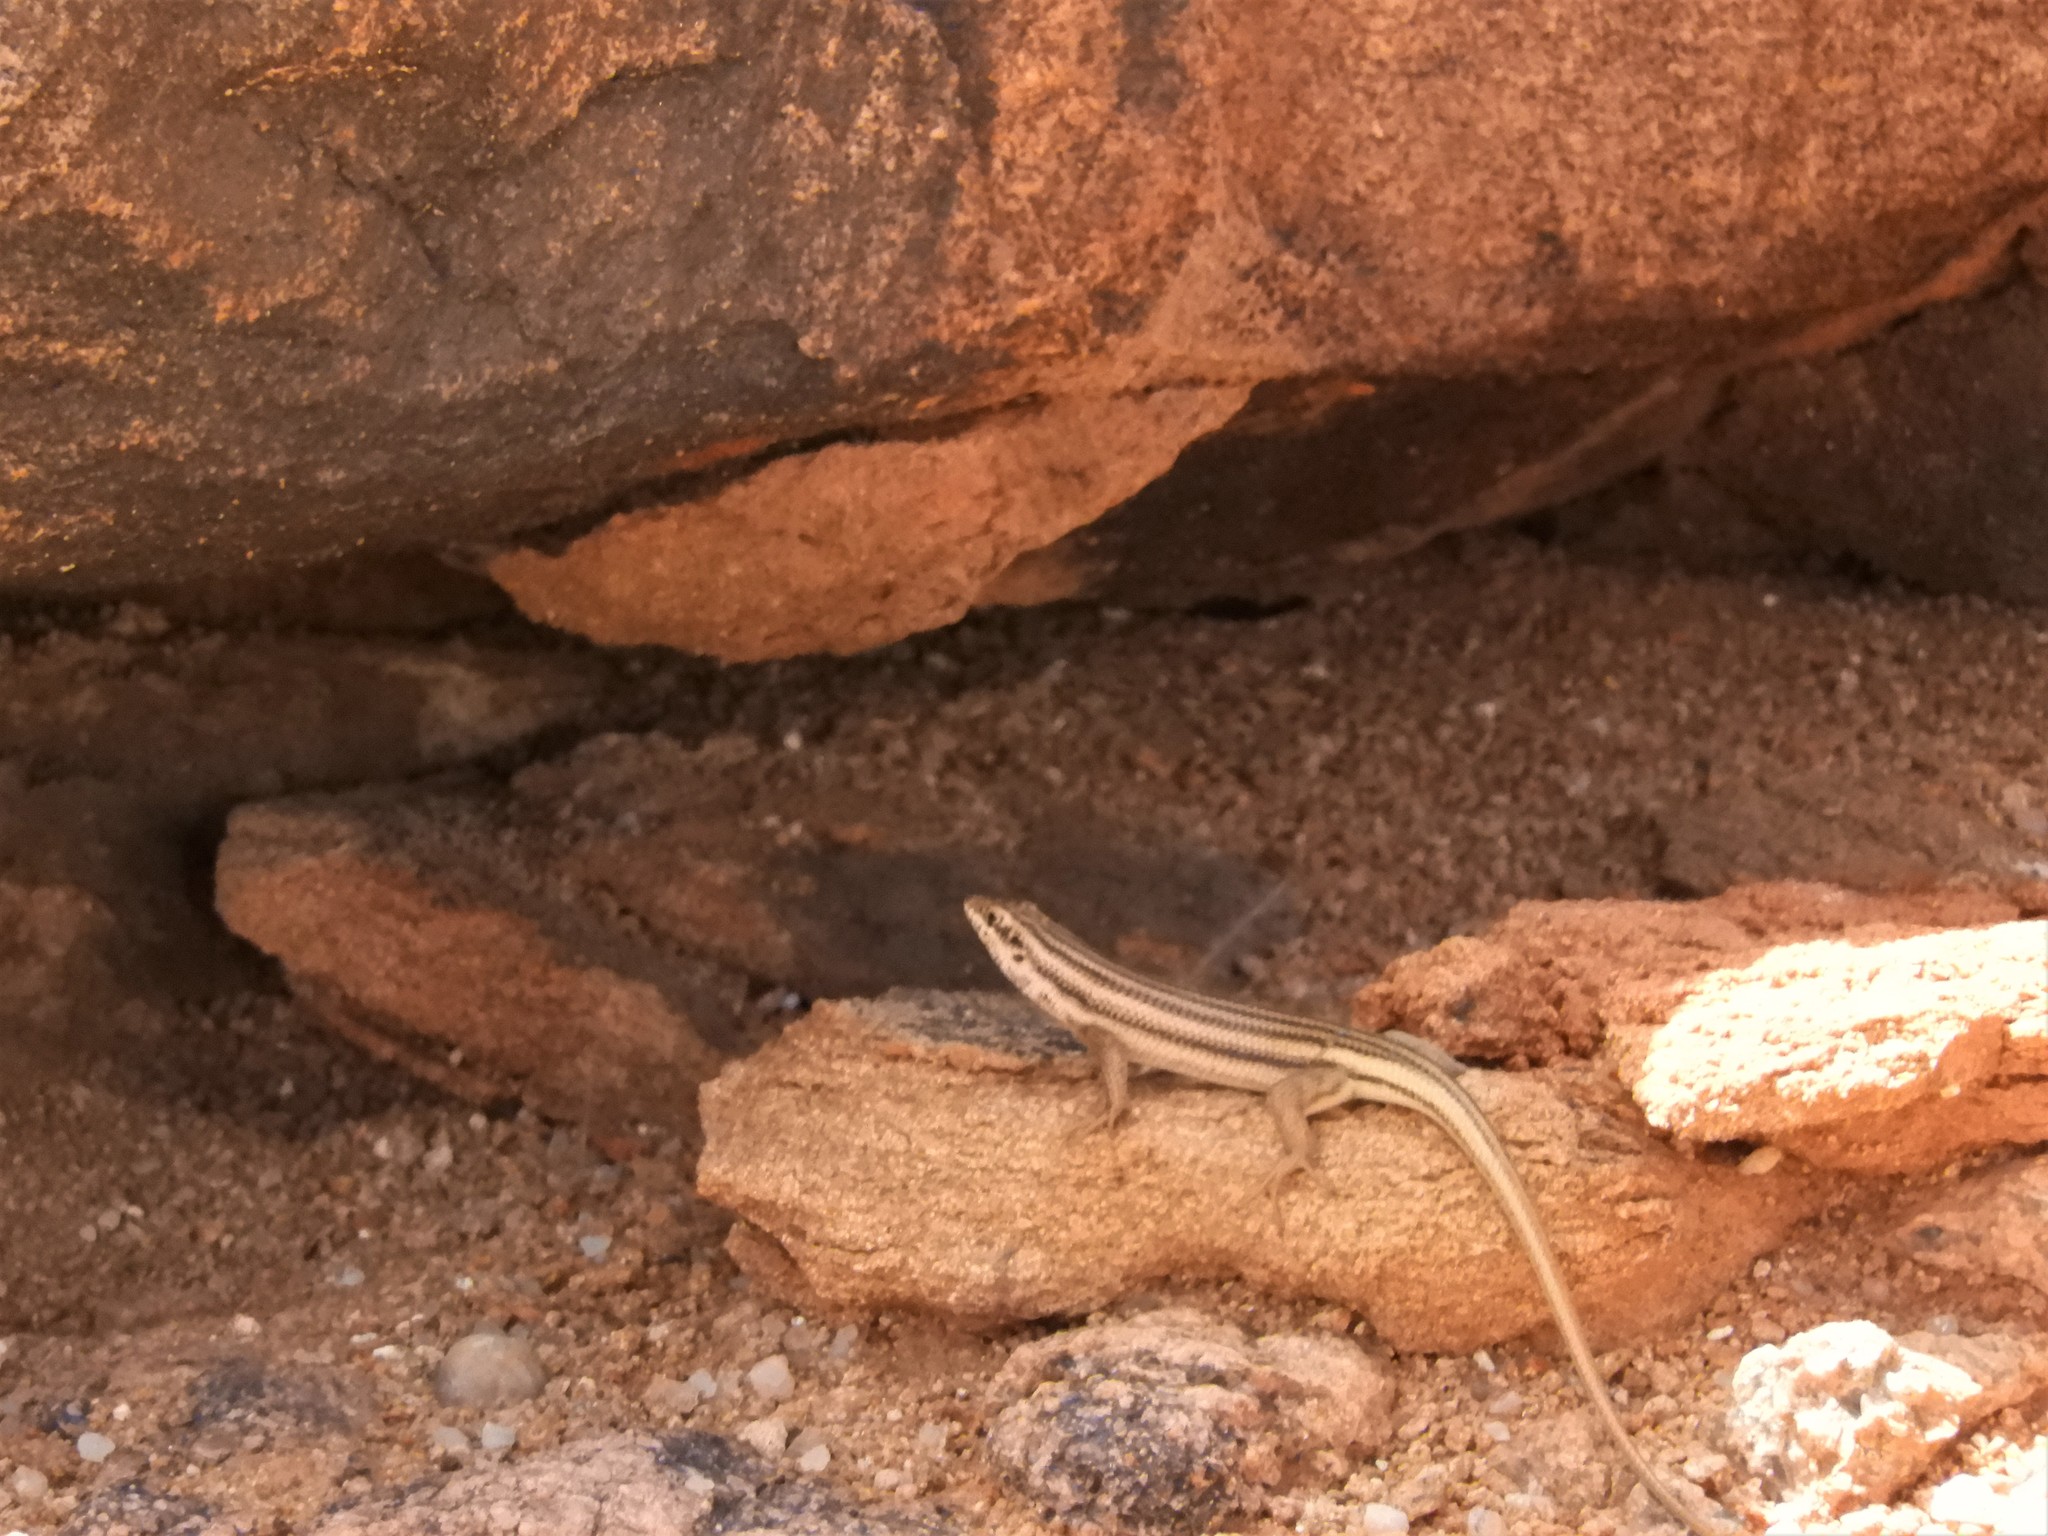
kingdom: Animalia
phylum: Chordata
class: Squamata
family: Scincidae
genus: Trachylepis
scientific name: Trachylepis sulcata
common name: Western rock skink
